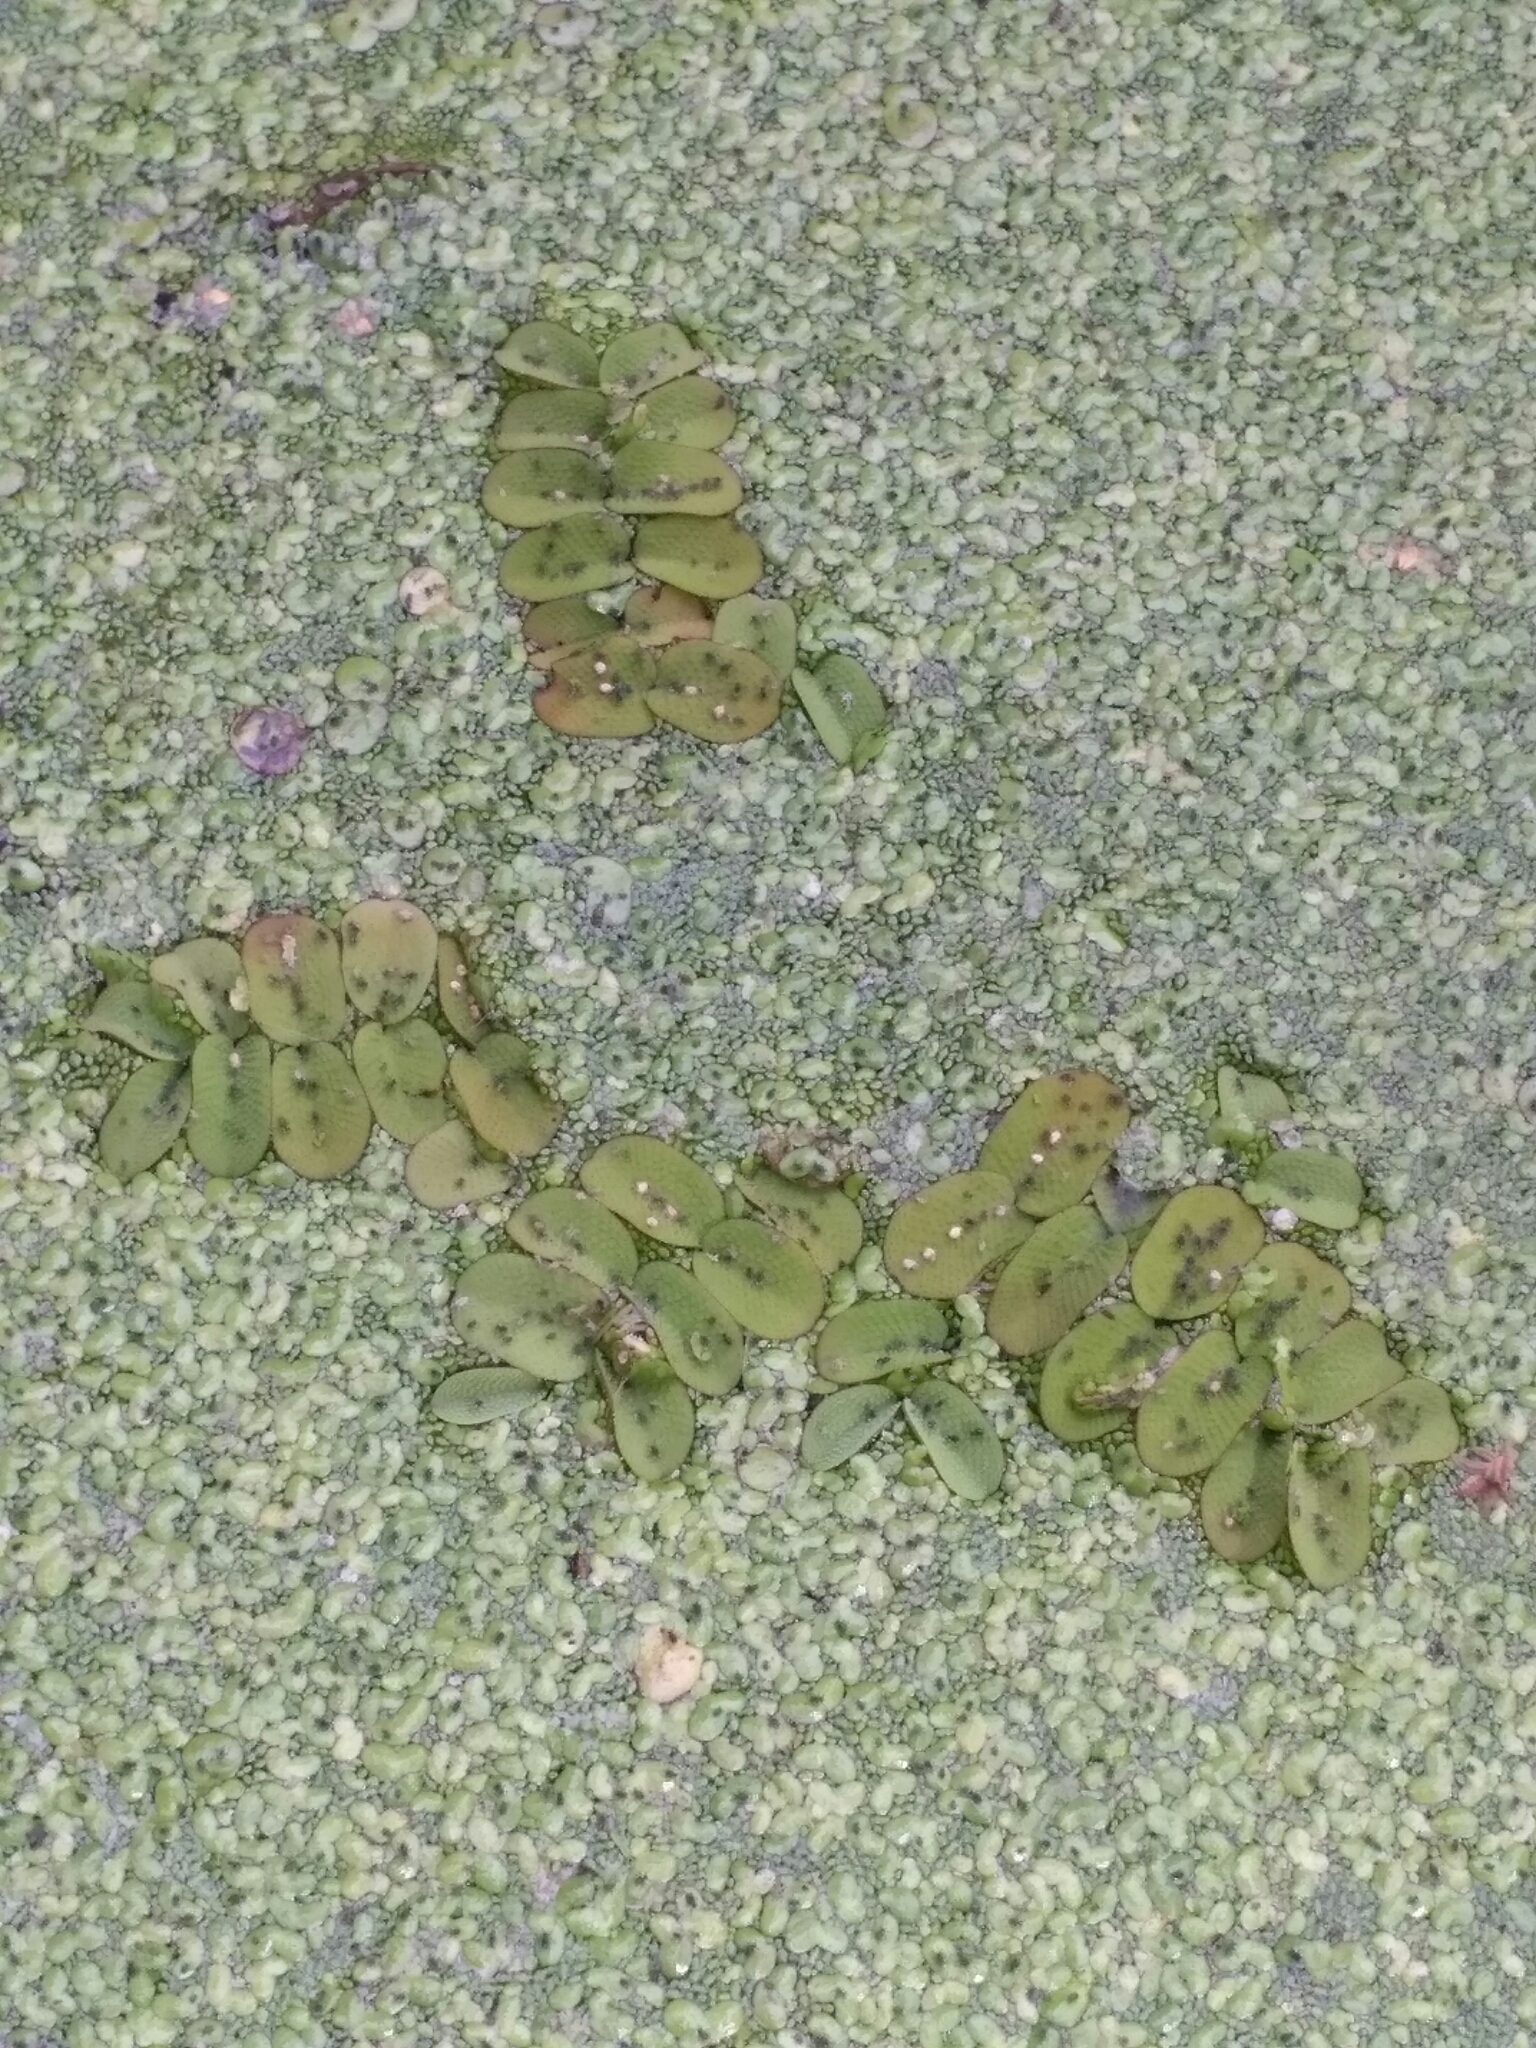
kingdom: Plantae
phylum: Tracheophyta
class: Polypodiopsida
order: Salviniales
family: Salviniaceae
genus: Salvinia
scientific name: Salvinia natans
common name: Floating fern
